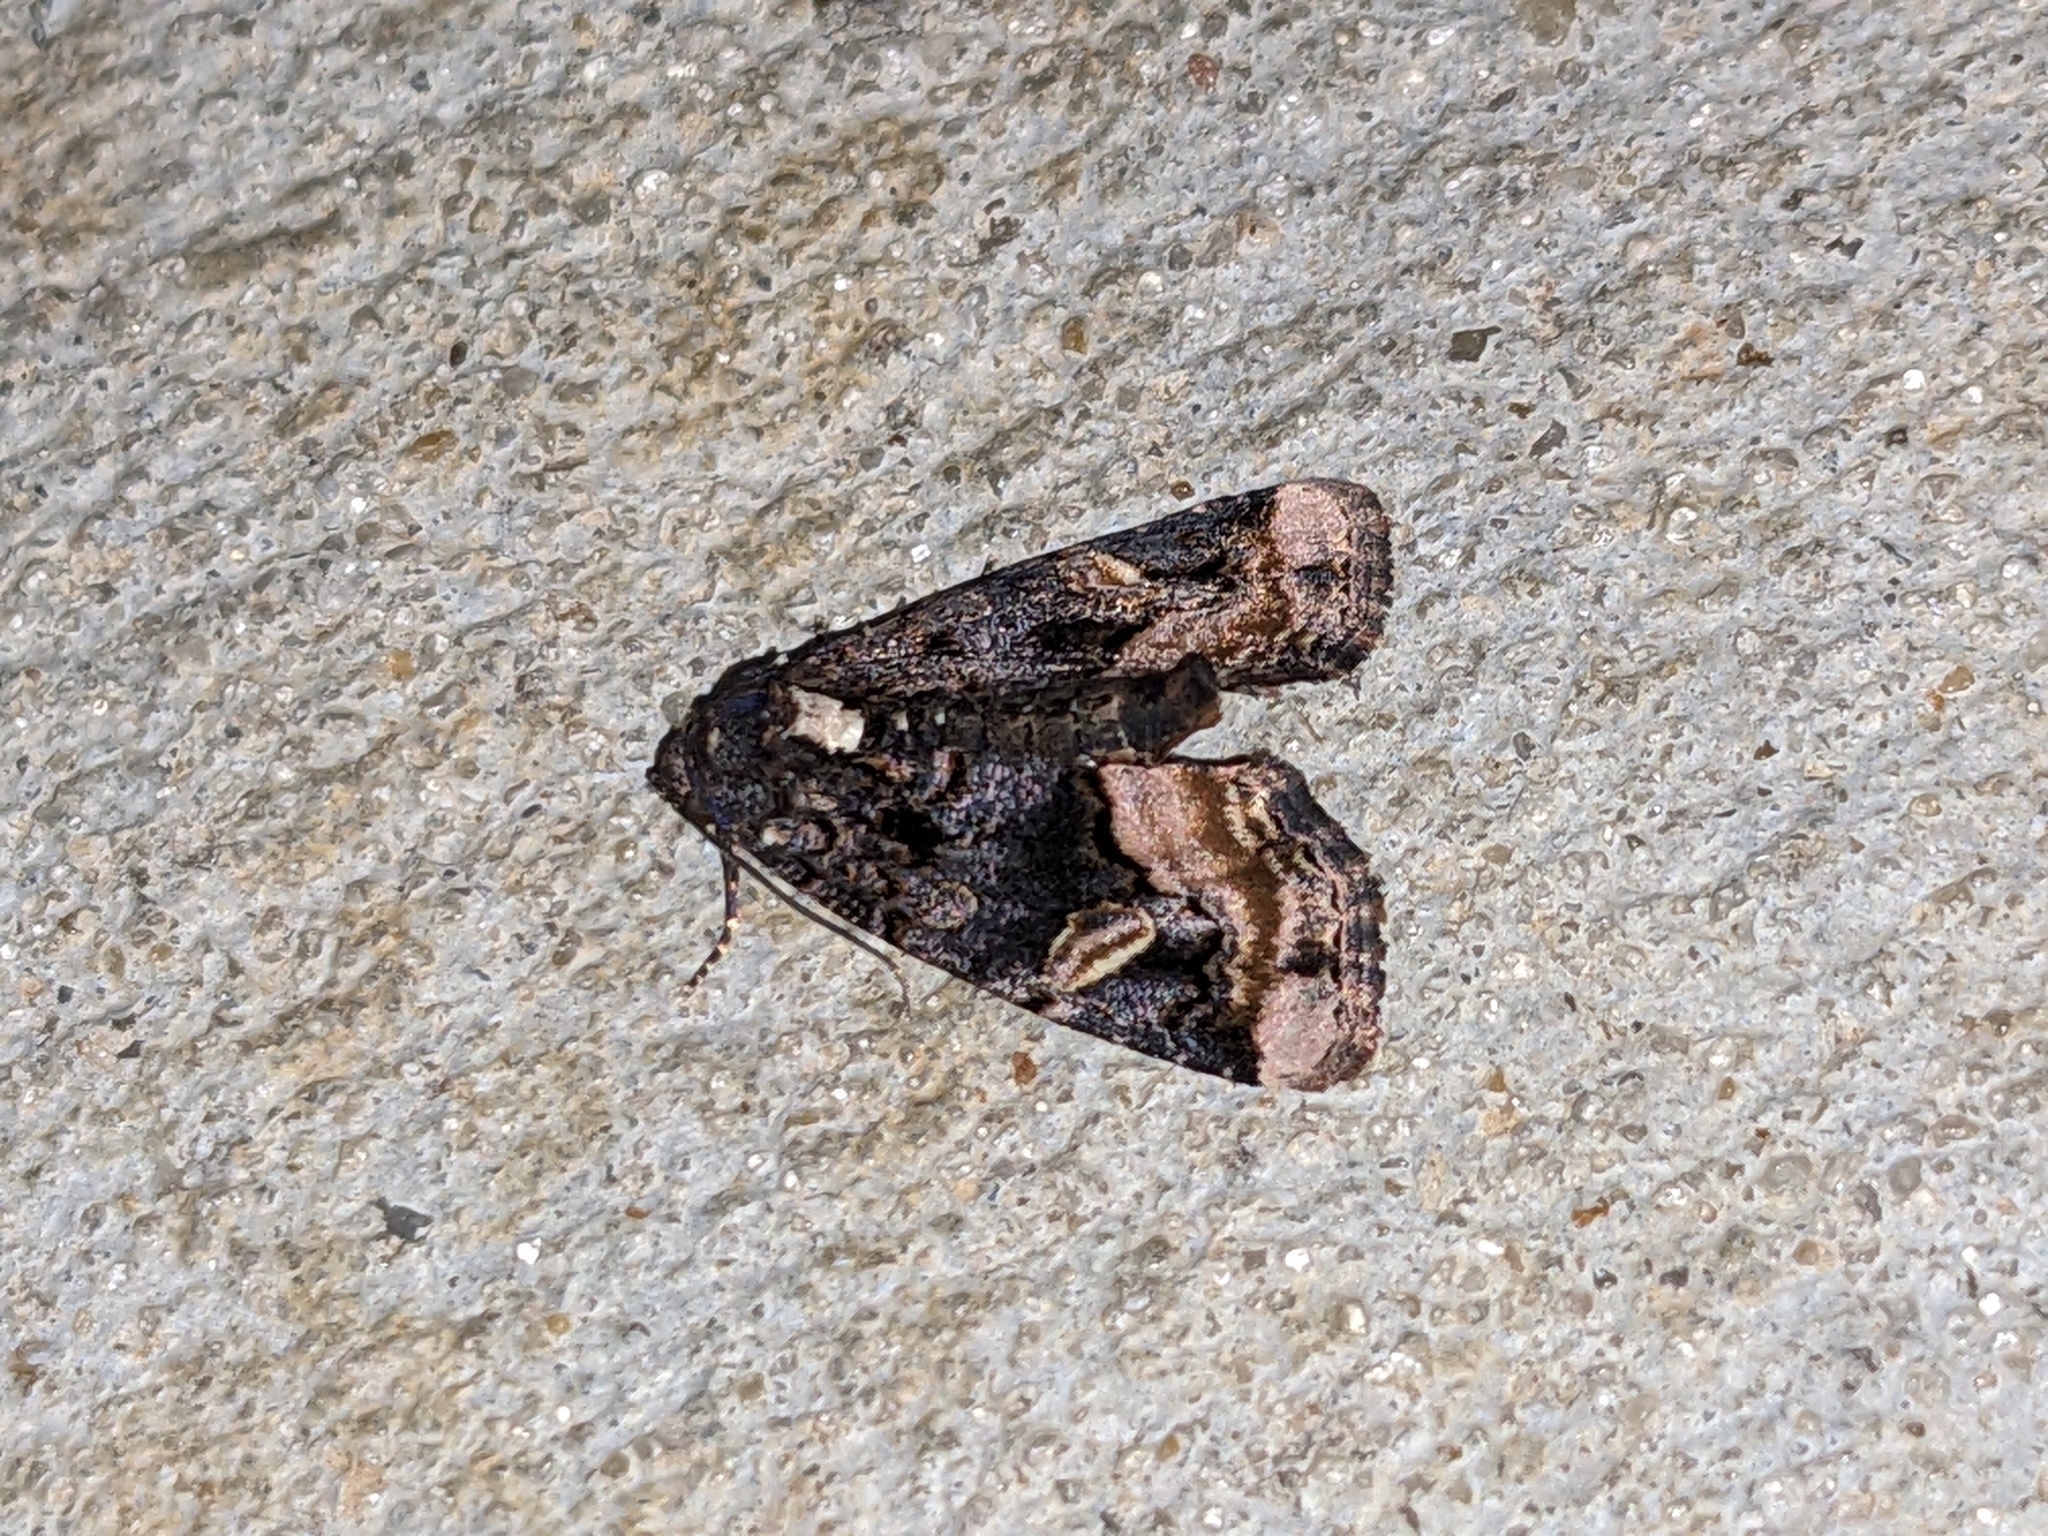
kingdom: Animalia
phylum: Arthropoda
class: Insecta
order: Lepidoptera
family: Noctuidae
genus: Homophoberia
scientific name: Homophoberia apicosa
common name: Black wedge-spot
